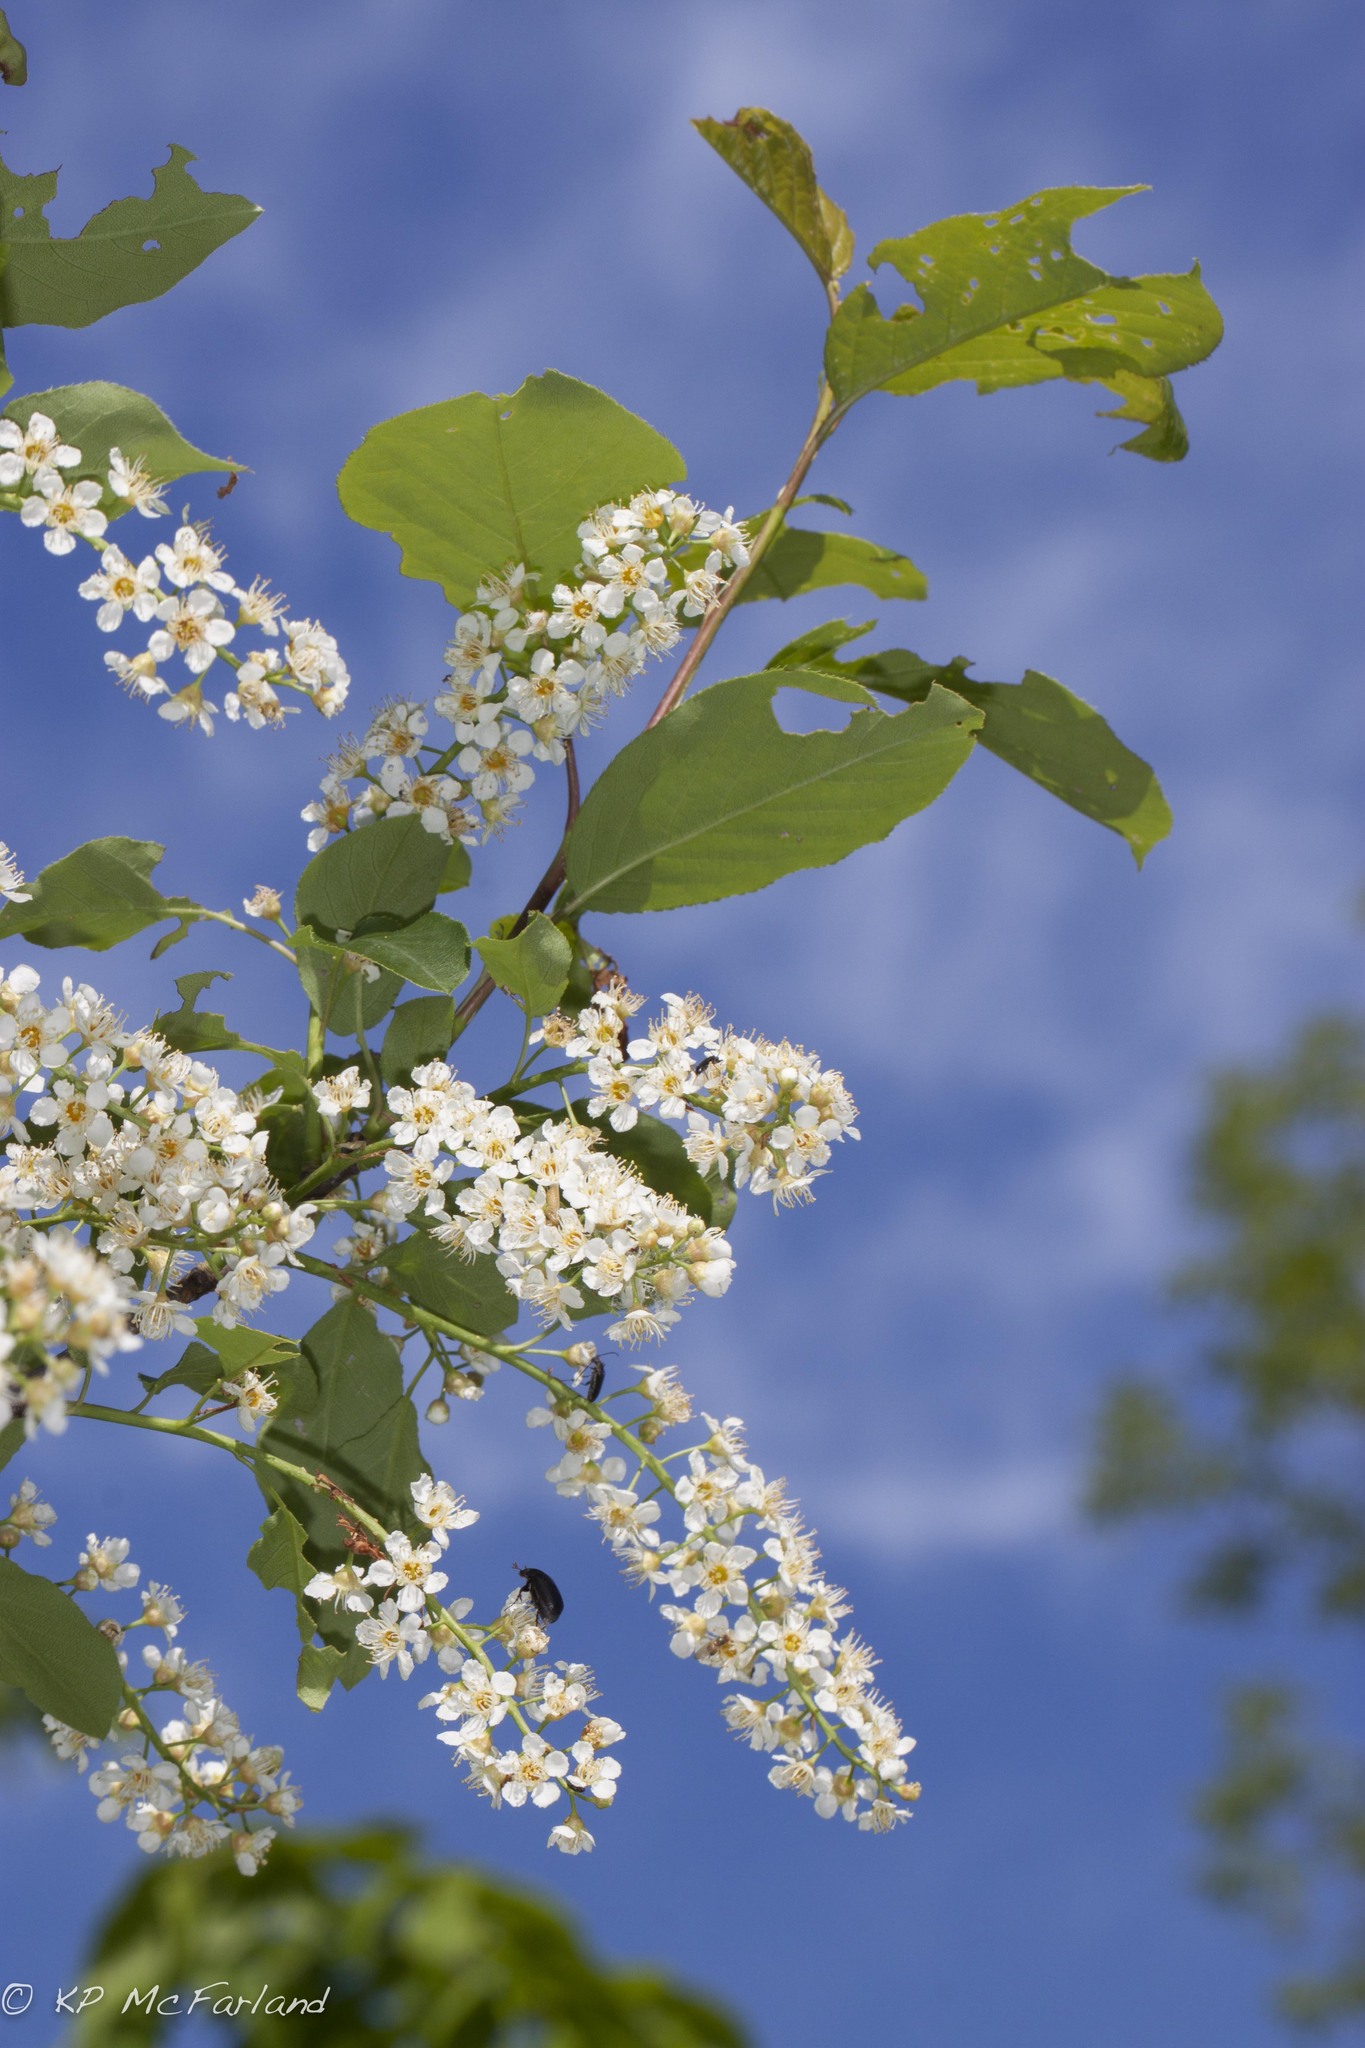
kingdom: Plantae
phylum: Tracheophyta
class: Magnoliopsida
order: Rosales
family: Rosaceae
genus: Prunus
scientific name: Prunus virginiana
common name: Chokecherry
